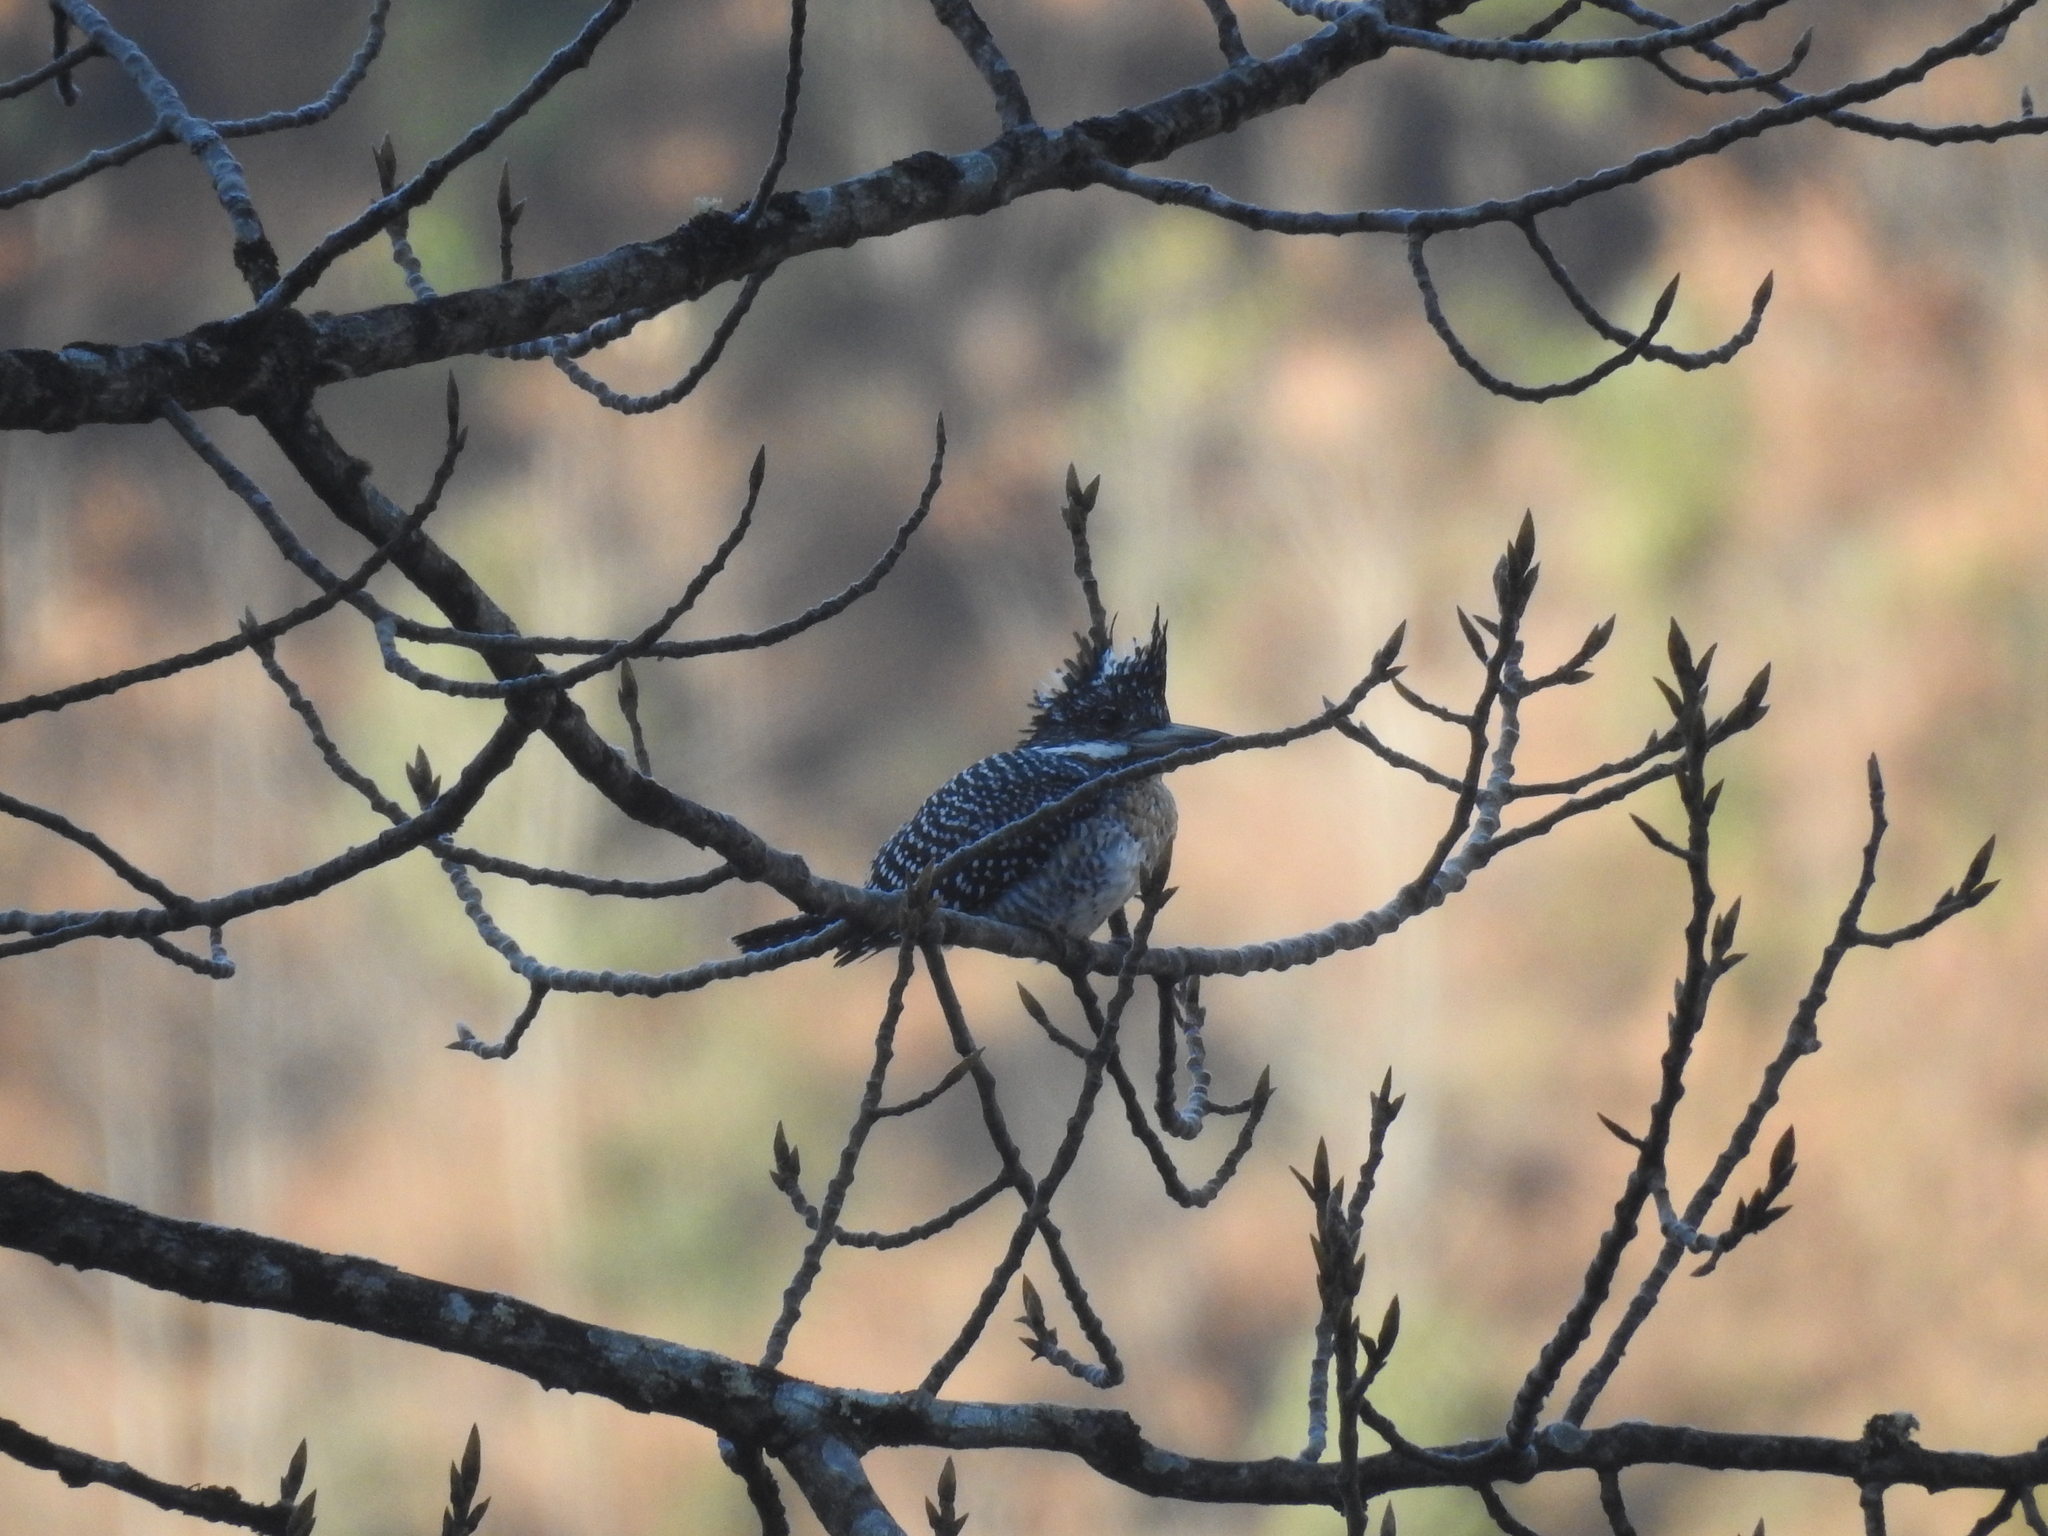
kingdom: Animalia
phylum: Chordata
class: Aves
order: Coraciiformes
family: Alcedinidae
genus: Megaceryle
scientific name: Megaceryle lugubris
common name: Crested kingfisher
